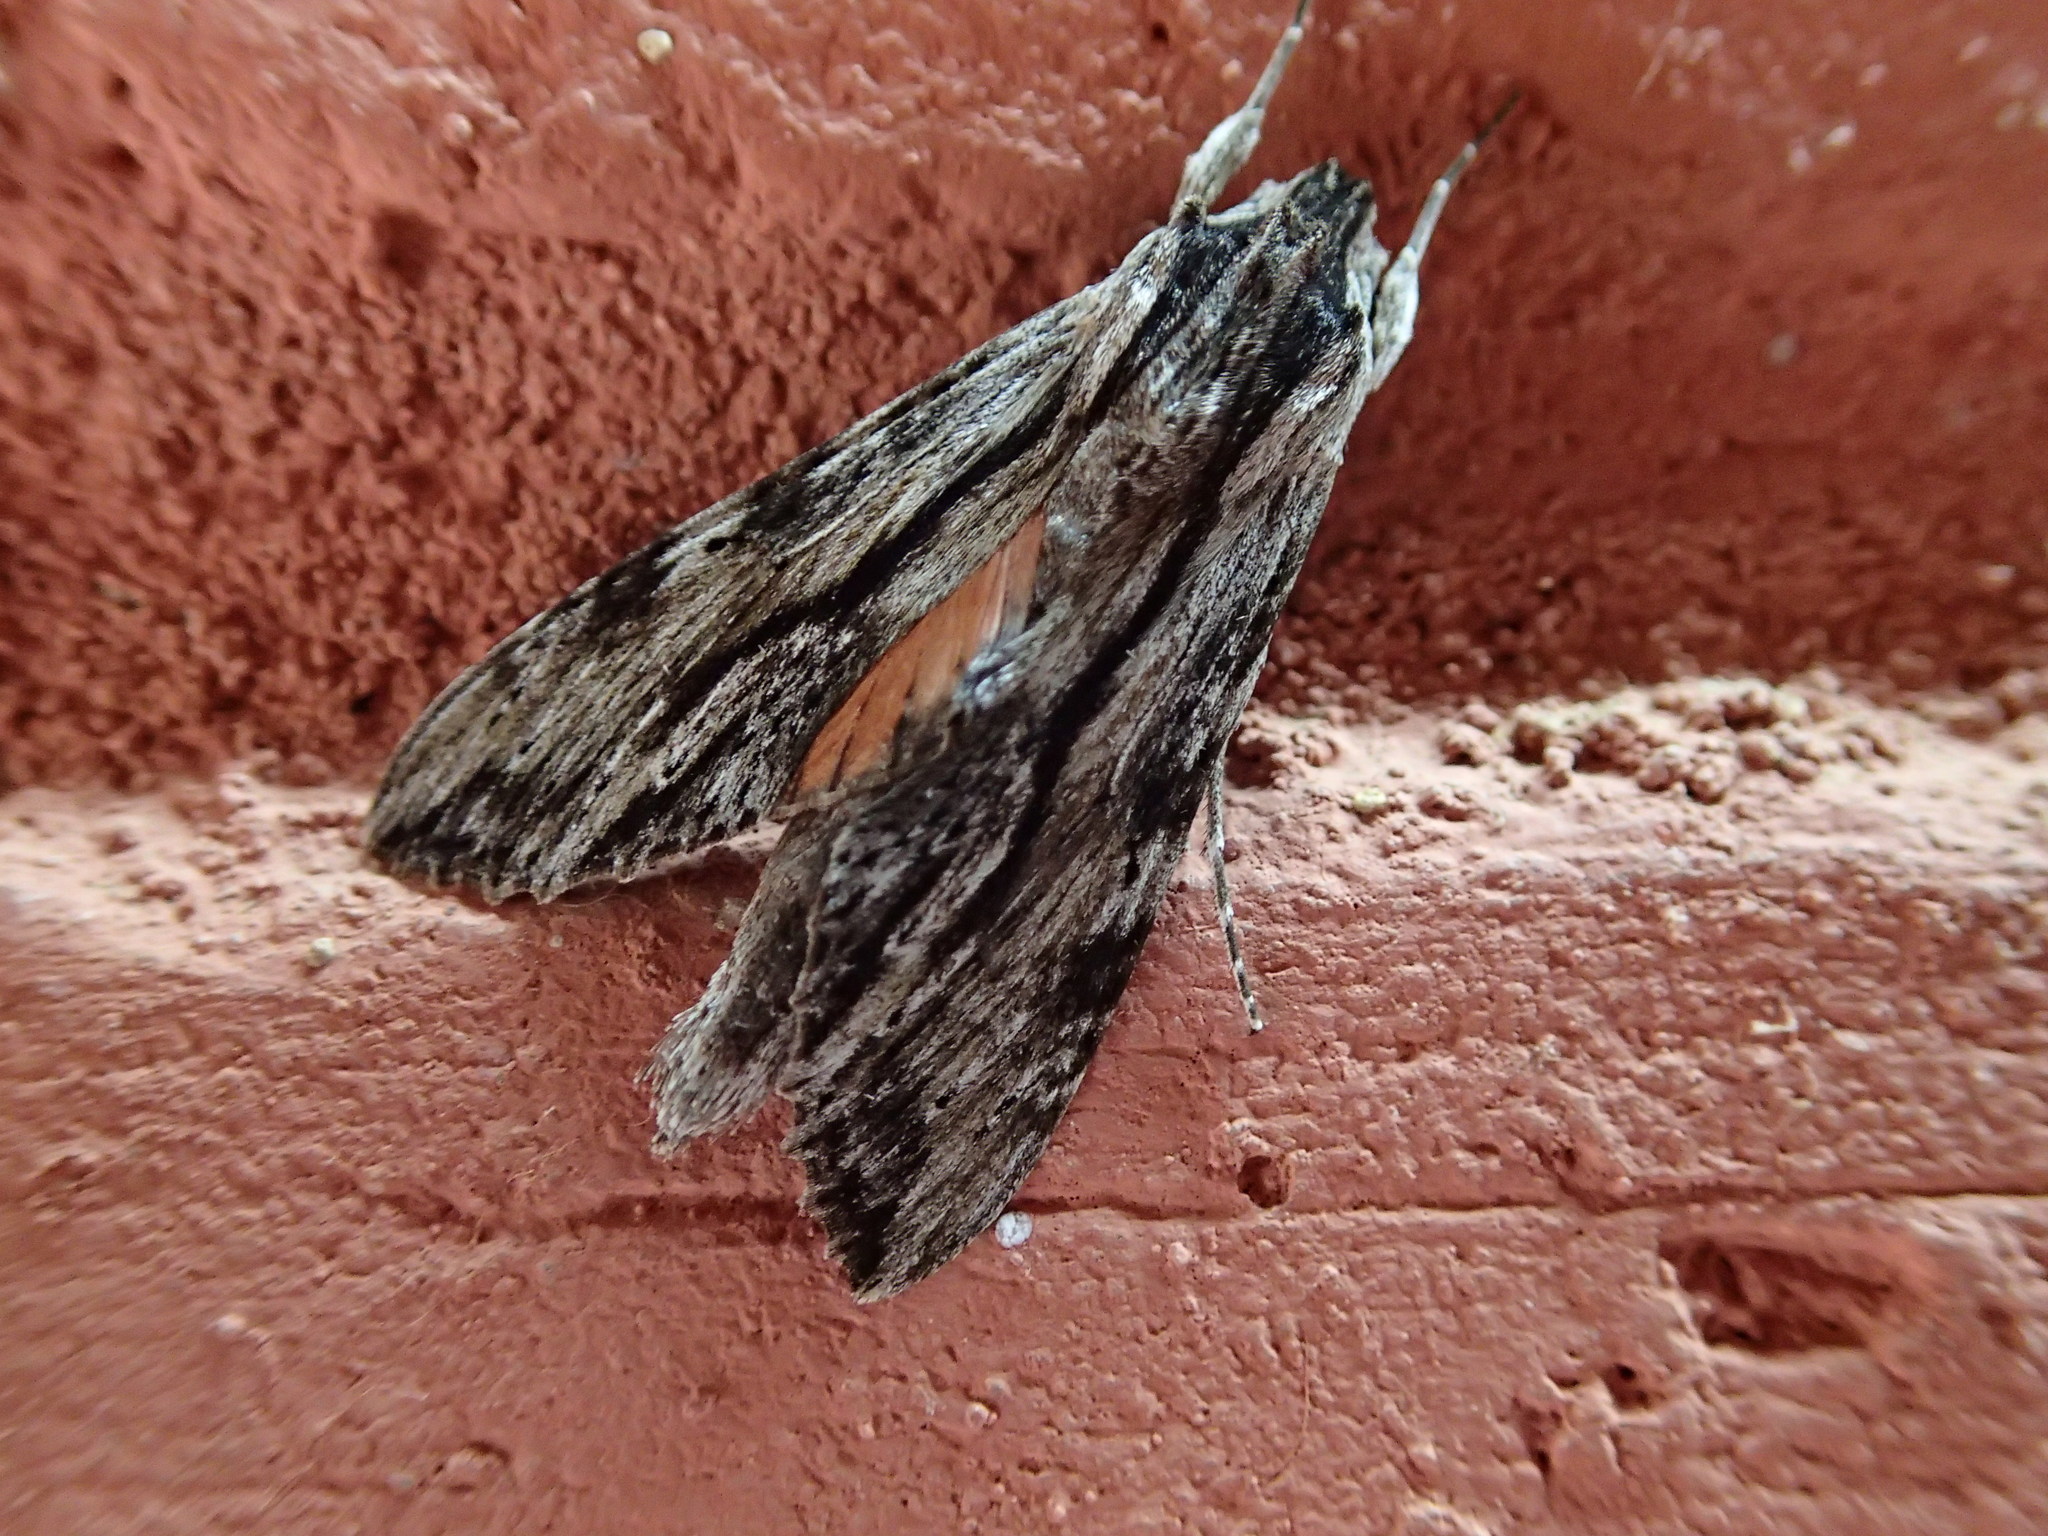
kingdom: Animalia
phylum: Arthropoda
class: Insecta
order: Lepidoptera
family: Sphingidae
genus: Erinnyis
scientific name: Erinnyis obscura
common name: Obscure sphinx
